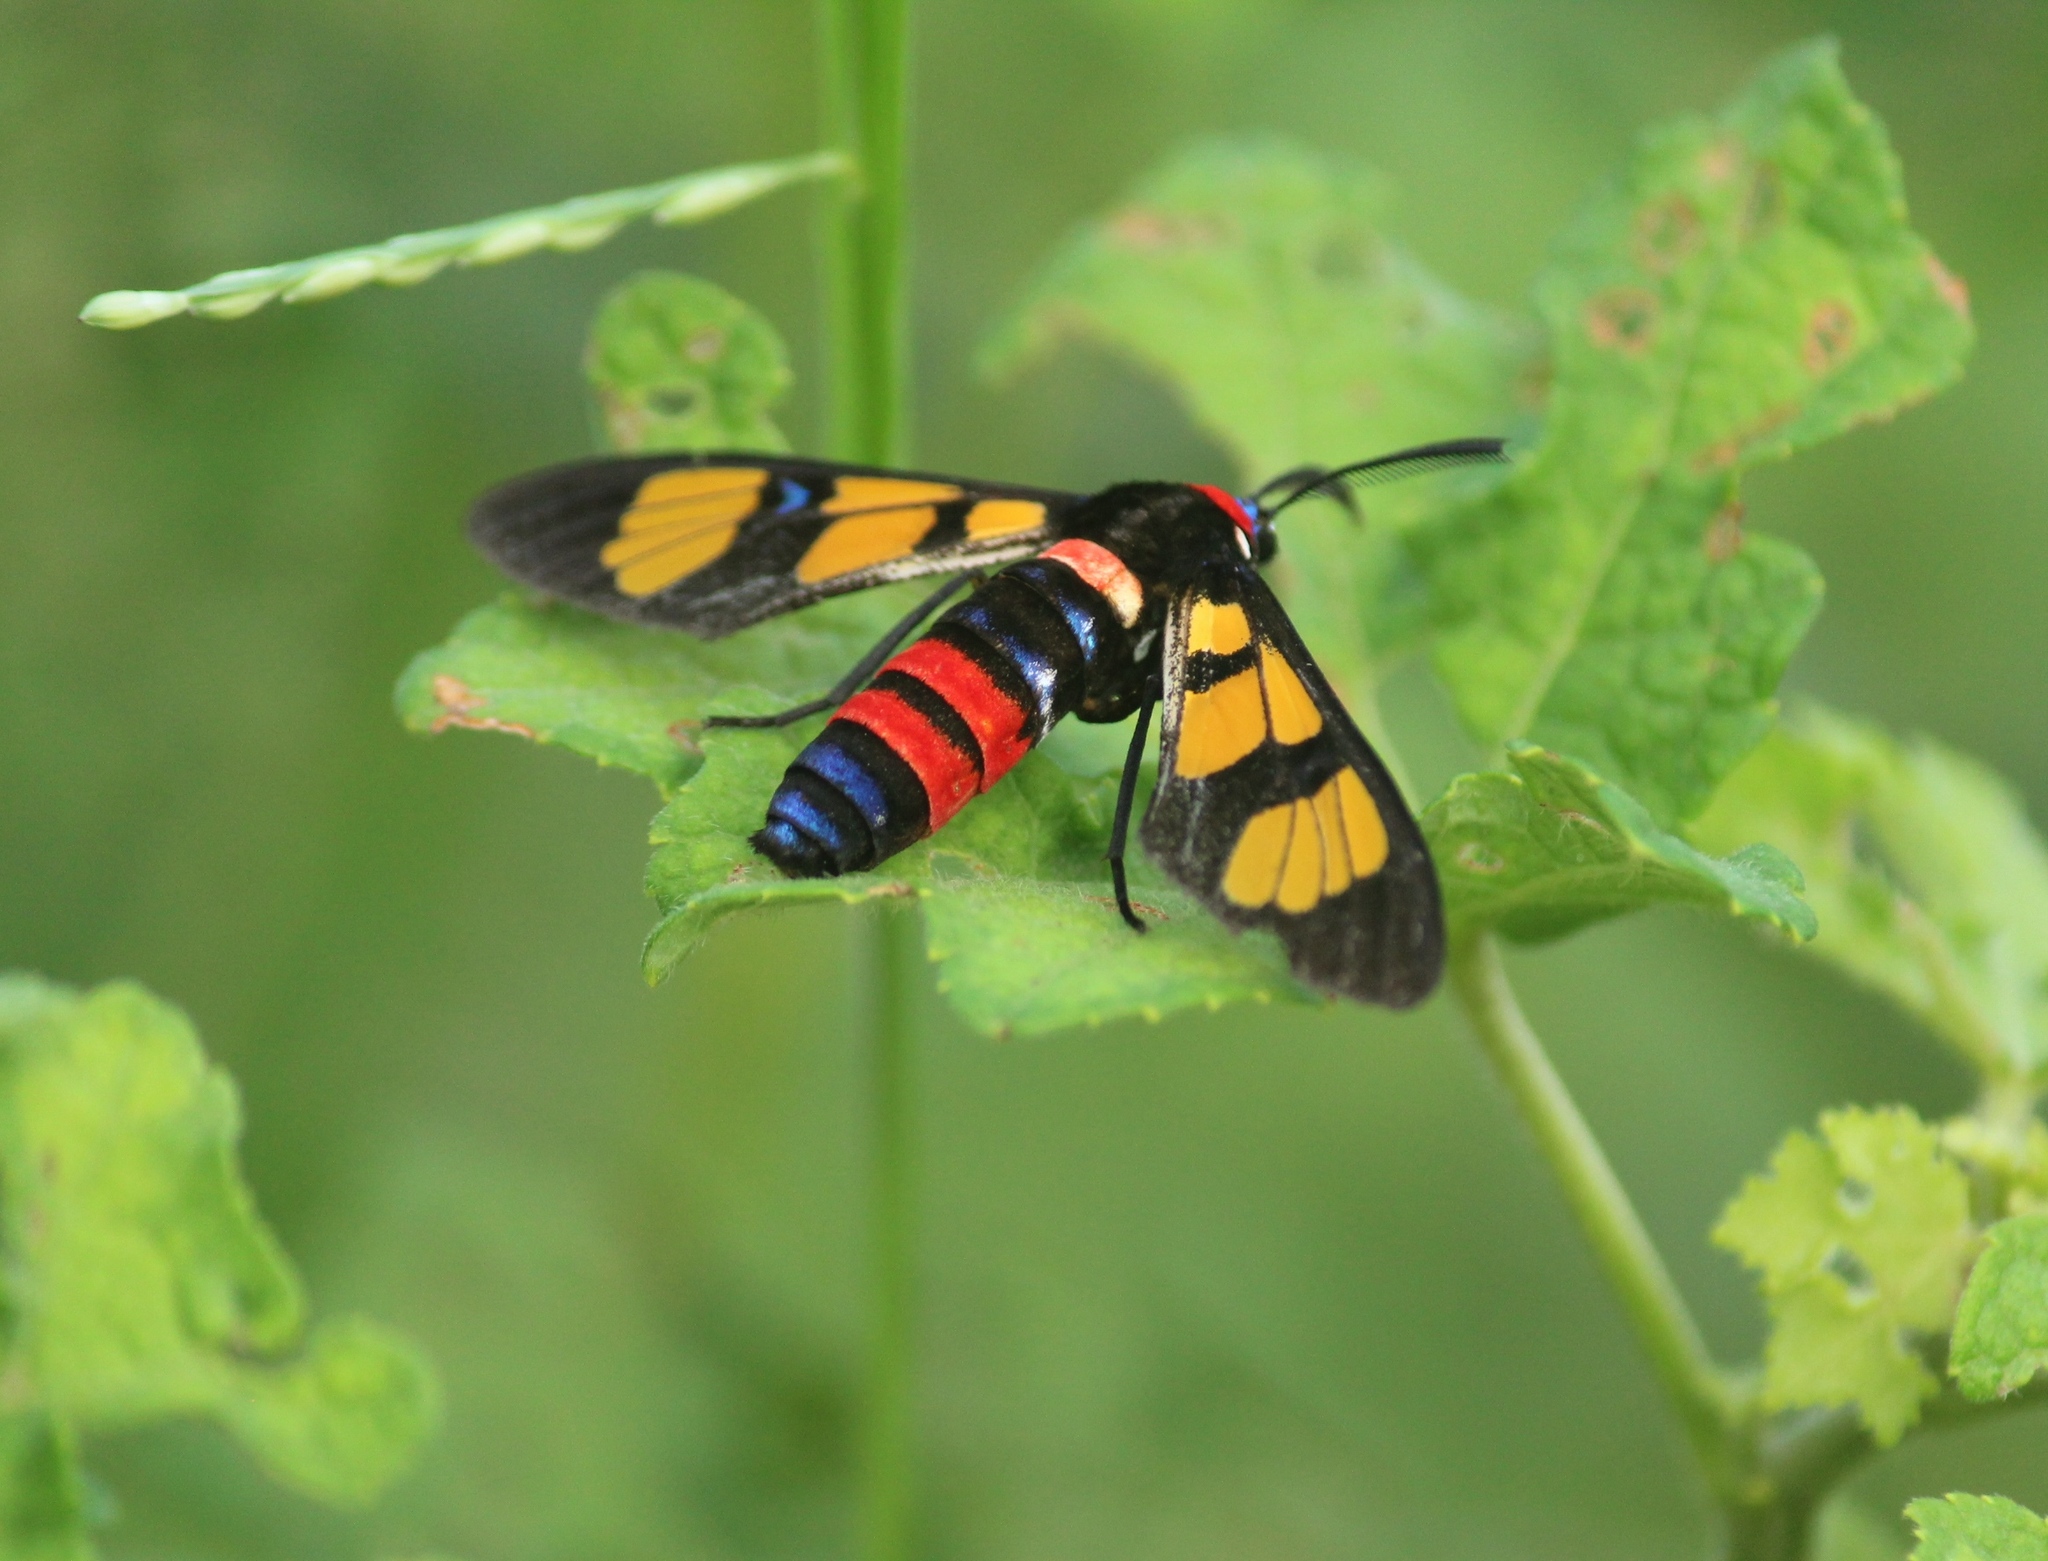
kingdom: Animalia
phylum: Arthropoda
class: Insecta
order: Lepidoptera
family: Erebidae
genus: Euchromia
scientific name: Euchromia polymena
